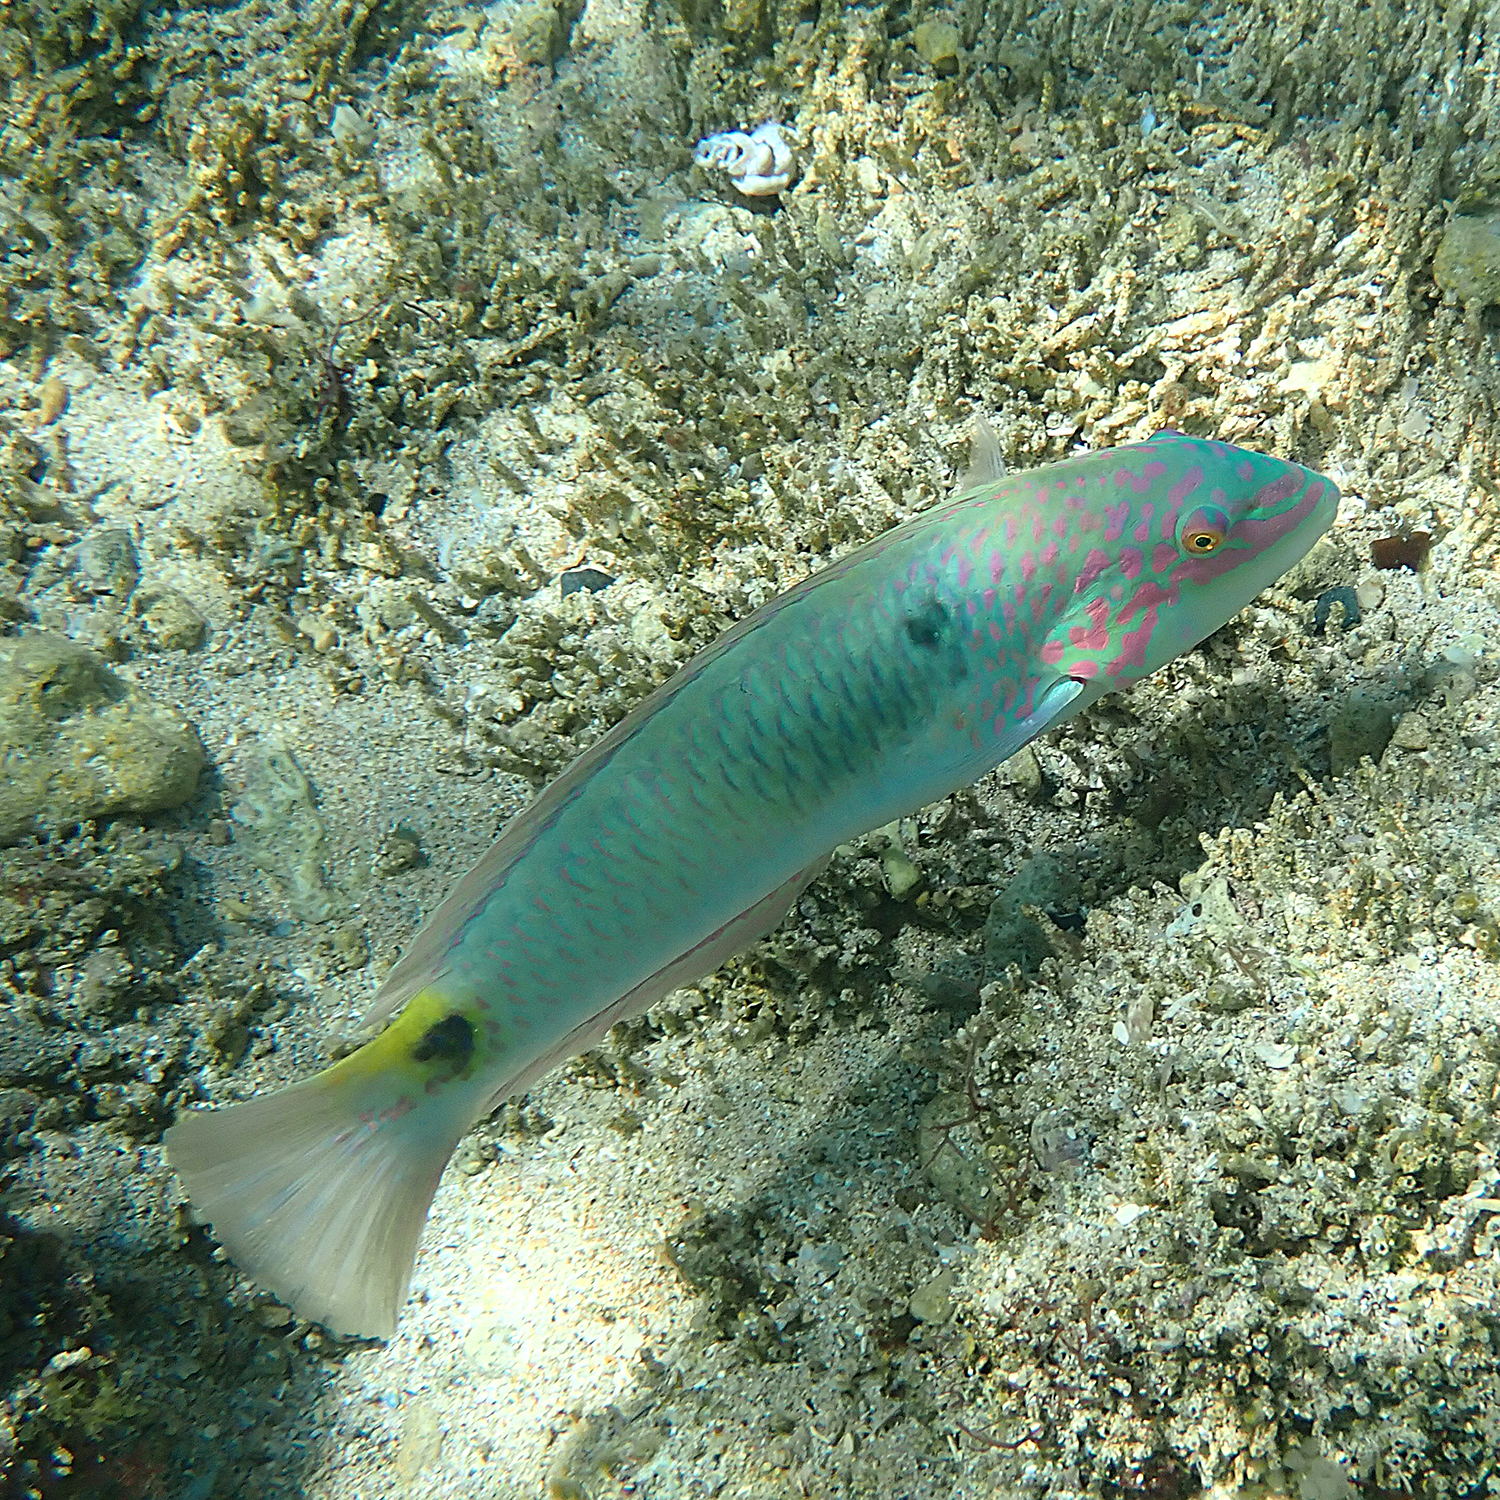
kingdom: Animalia
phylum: Chordata
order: Perciformes
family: Labridae
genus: Halichoeres
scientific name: Halichoeres trimaculatus
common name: Three-spot wrasse
